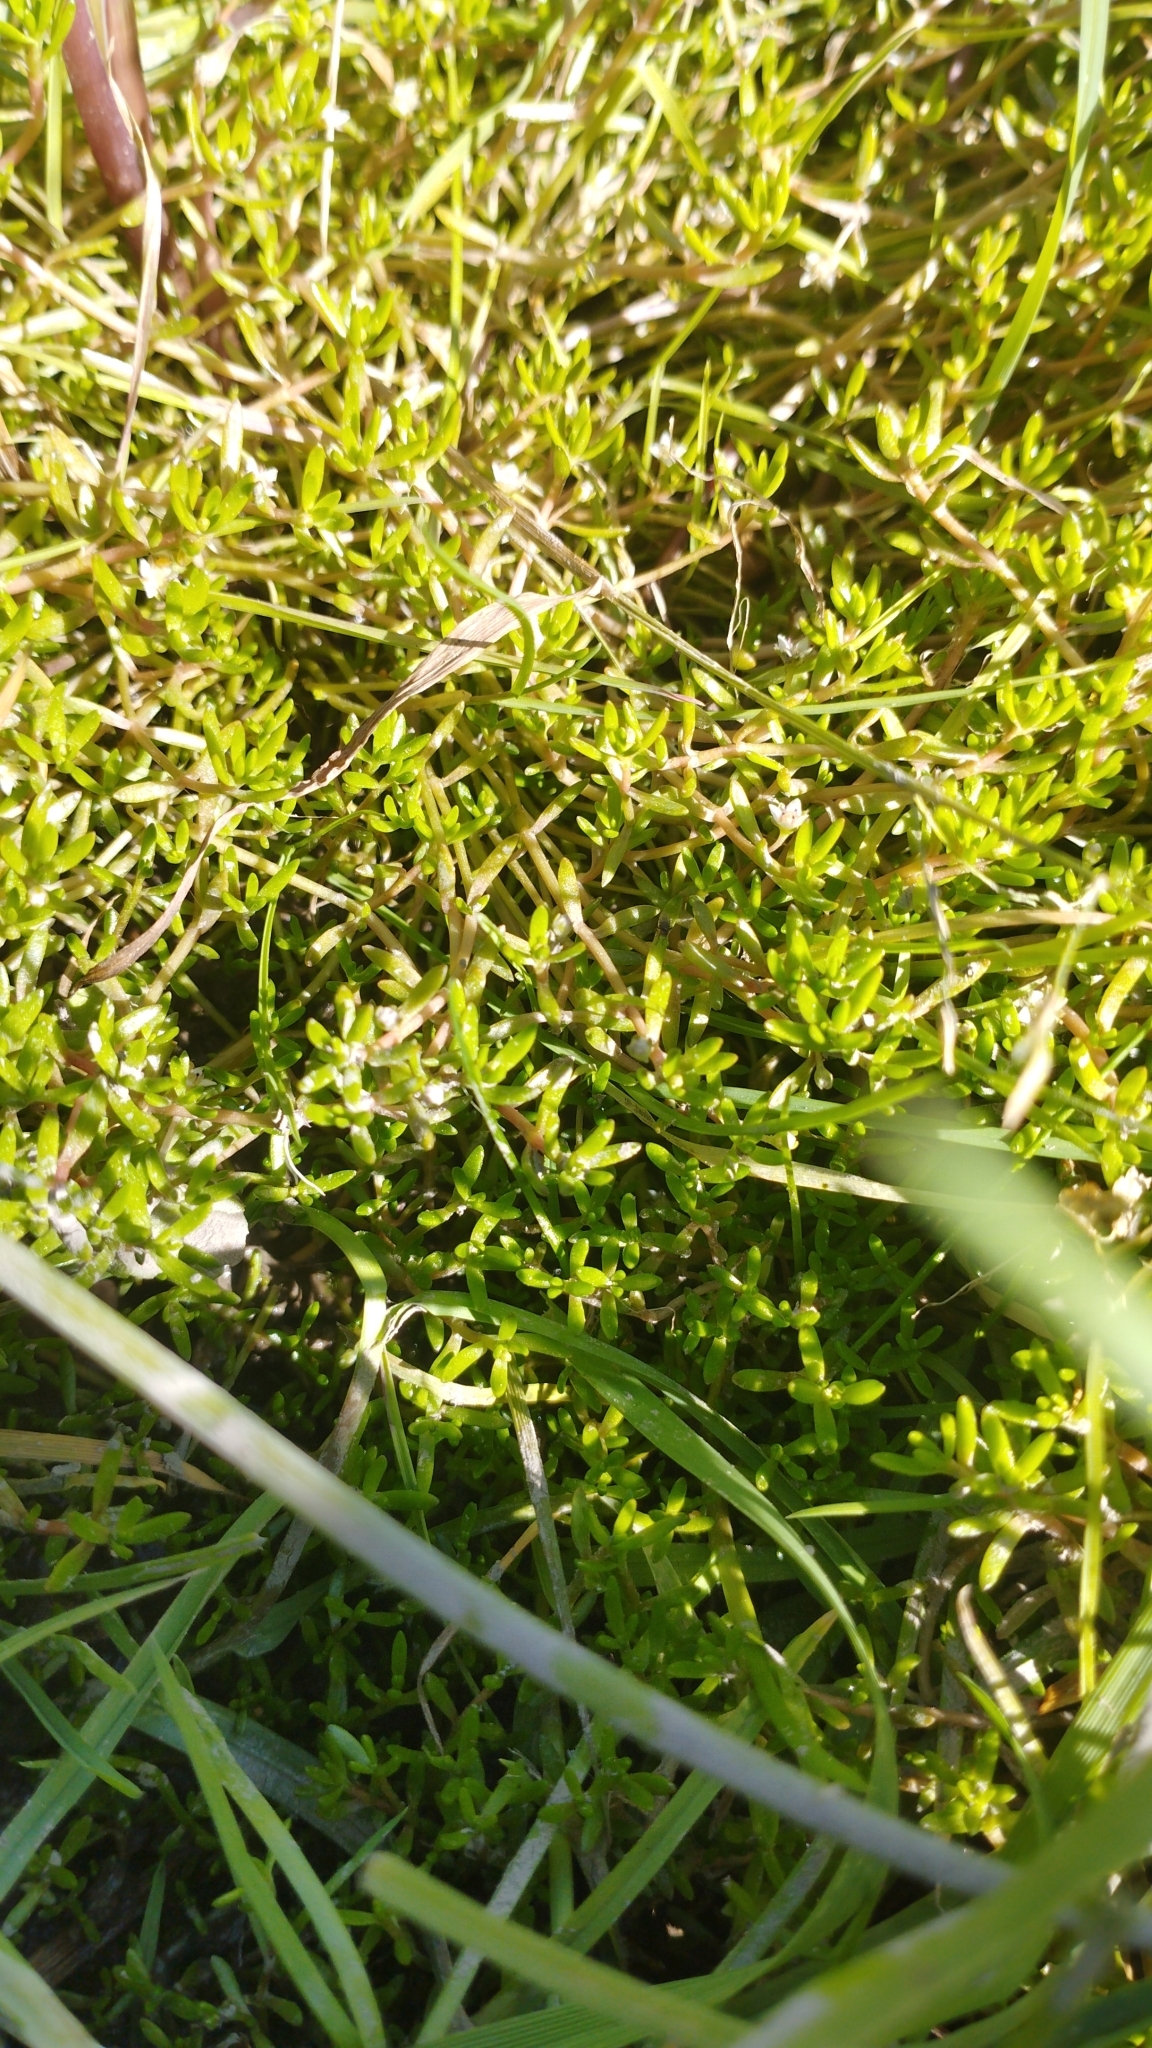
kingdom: Plantae
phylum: Tracheophyta
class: Magnoliopsida
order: Saxifragales
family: Crassulaceae
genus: Crassula
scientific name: Crassula helmsii
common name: New zealand pigmyweed
